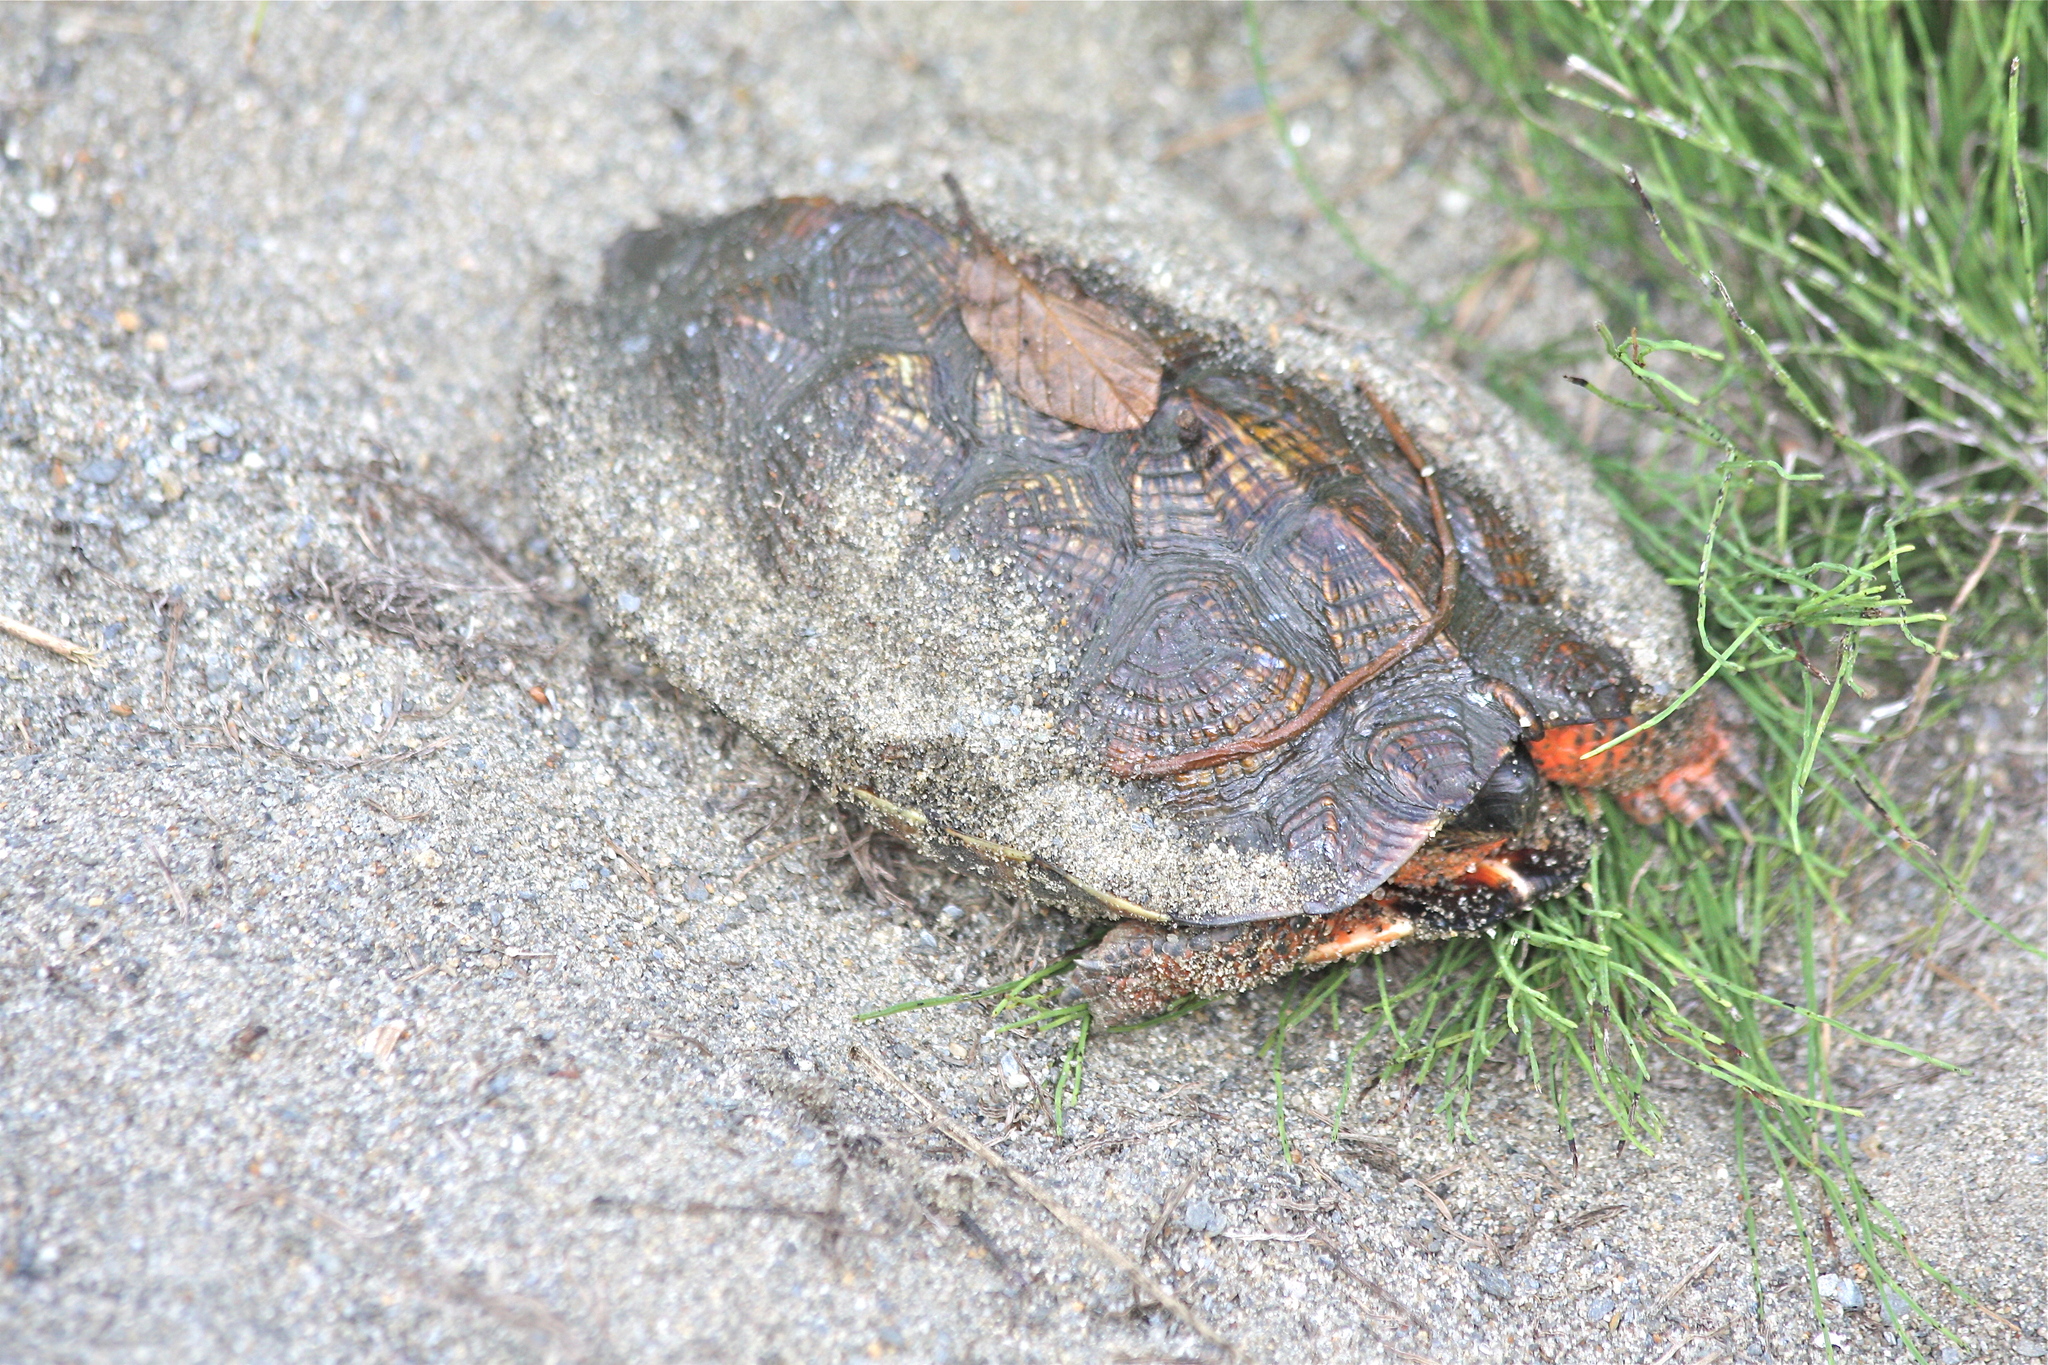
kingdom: Animalia
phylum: Chordata
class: Testudines
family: Emydidae
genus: Glyptemys
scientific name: Glyptemys insculpta
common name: Wood turtle
